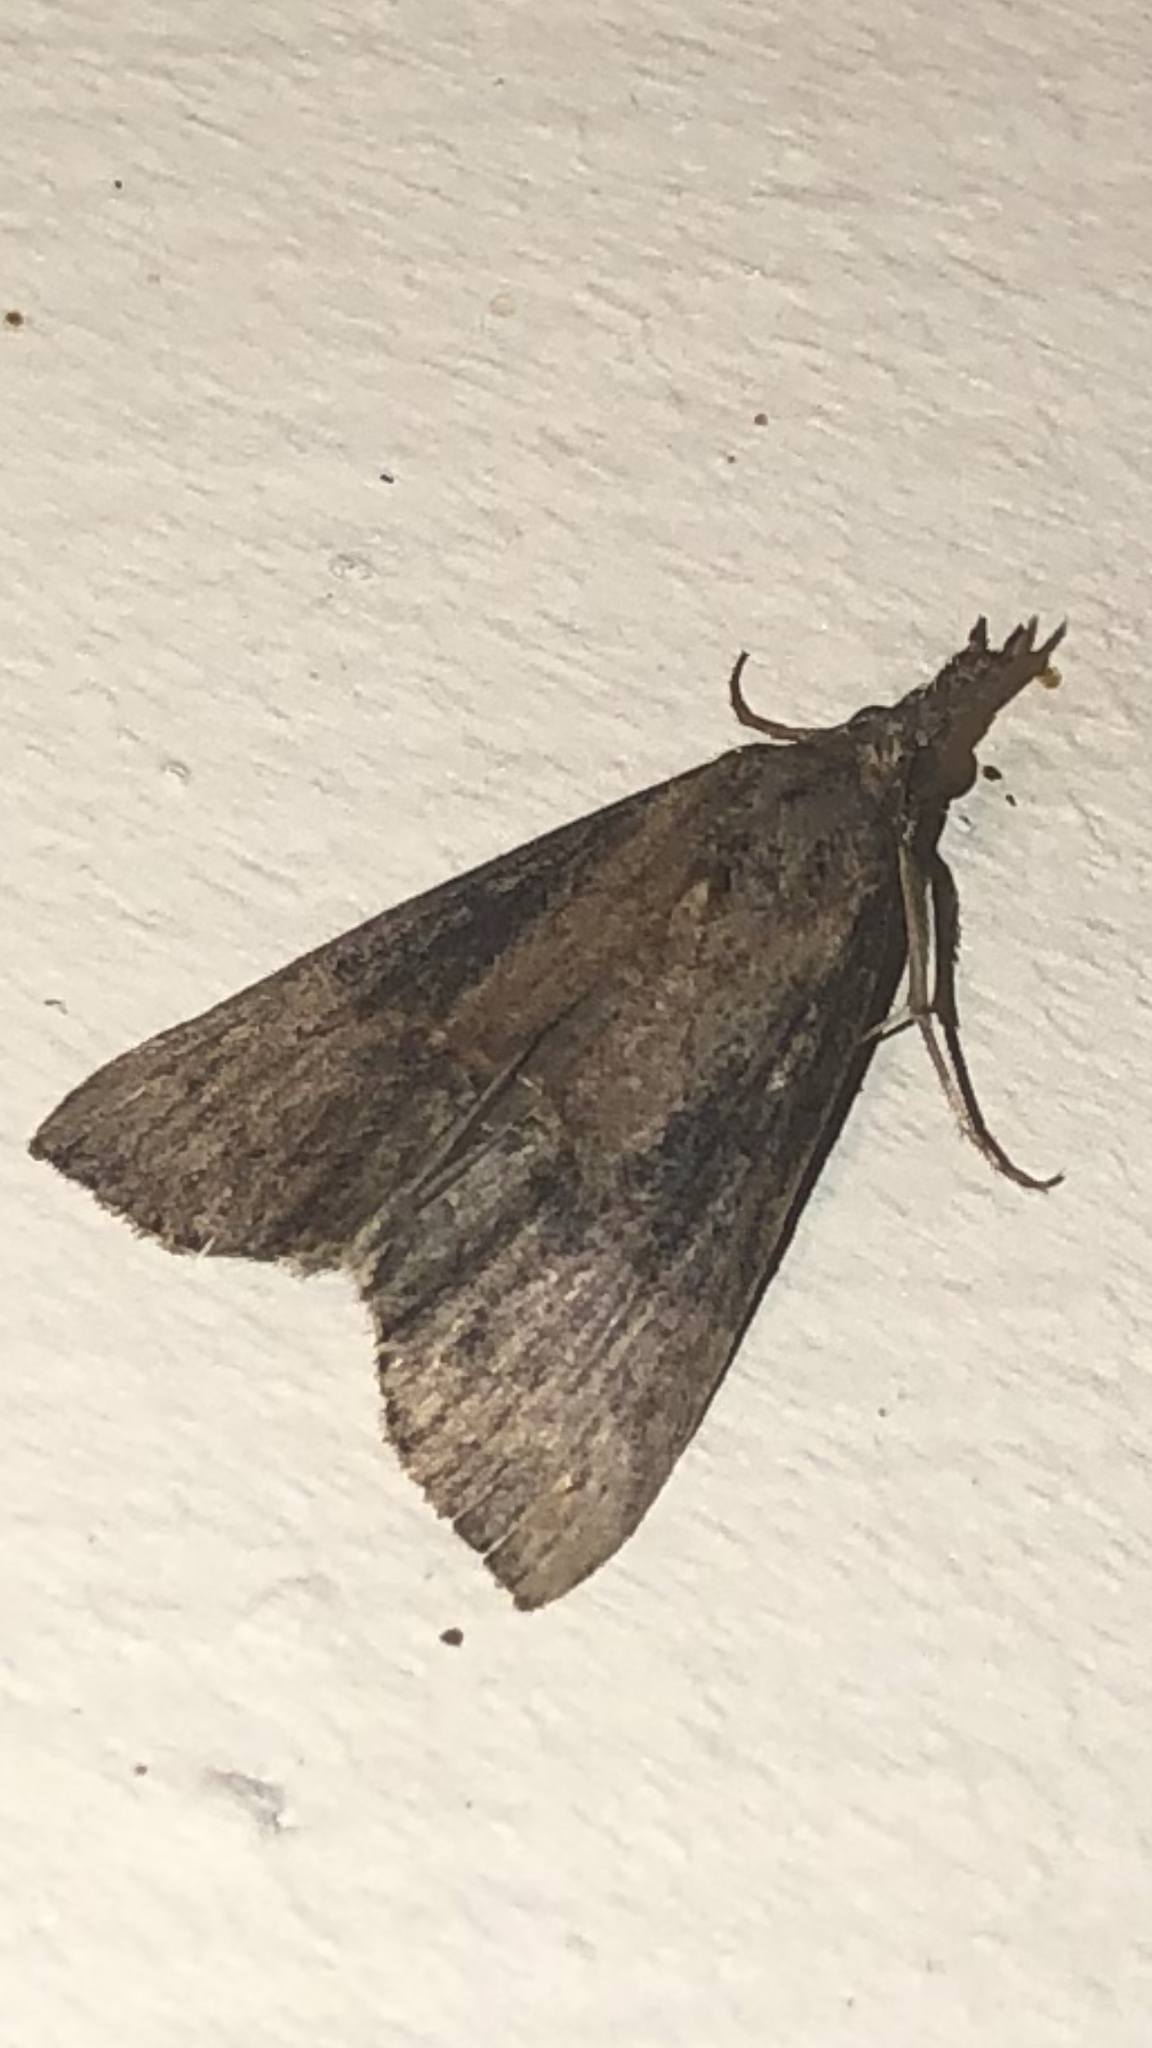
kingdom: Animalia
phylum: Arthropoda
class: Insecta
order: Lepidoptera
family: Erebidae
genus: Hypena
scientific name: Hypena scabra
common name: Green cloverworm
